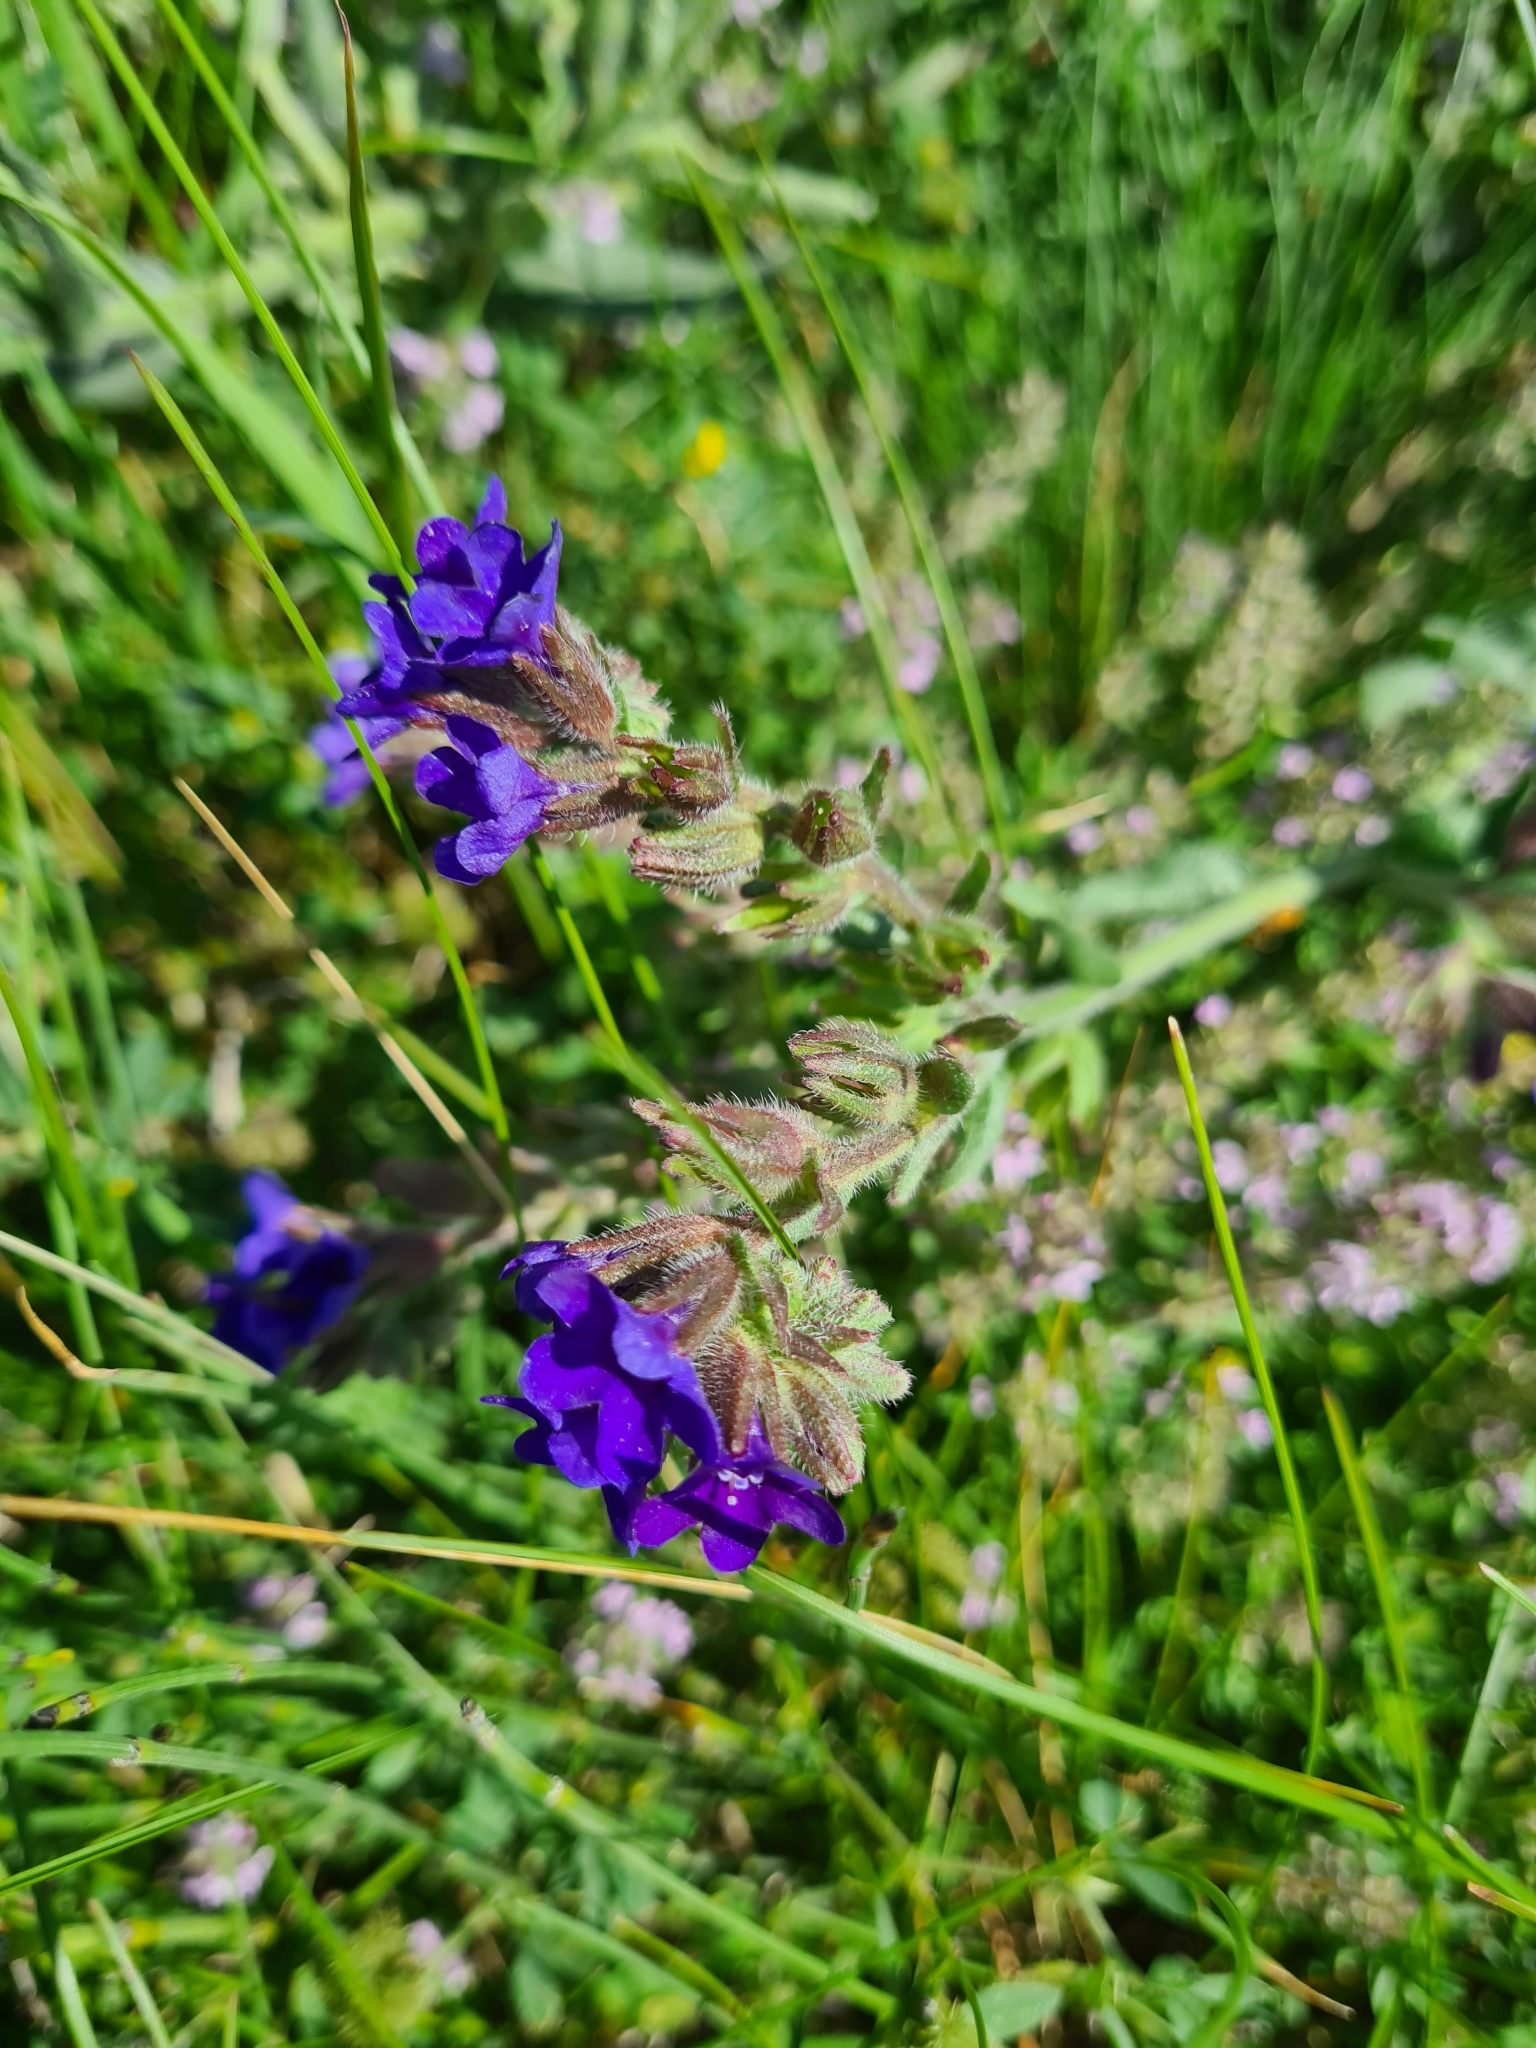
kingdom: Plantae
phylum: Tracheophyta
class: Magnoliopsida
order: Boraginales
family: Boraginaceae
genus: Anchusa
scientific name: Anchusa officinalis
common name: Alkanet
